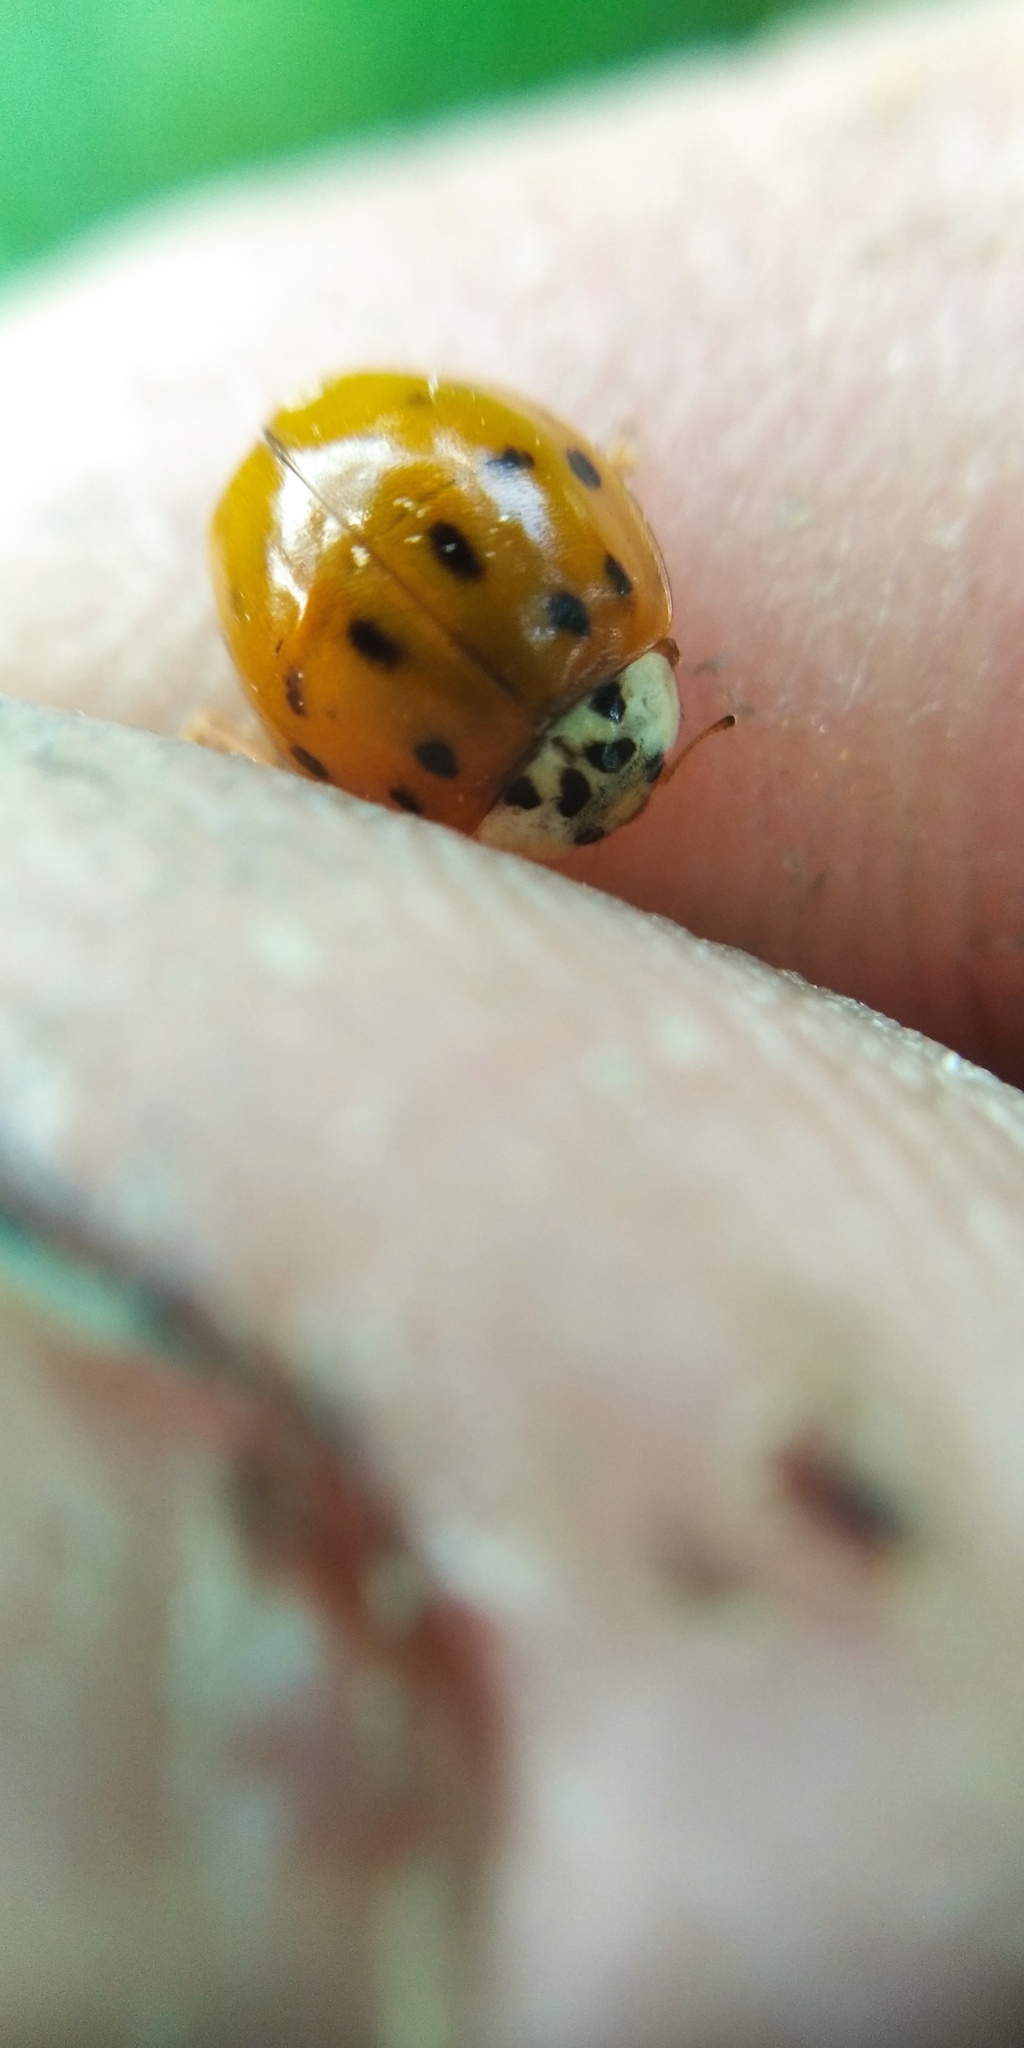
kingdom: Animalia
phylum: Arthropoda
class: Insecta
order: Coleoptera
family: Coccinellidae
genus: Harmonia
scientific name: Harmonia axyridis
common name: Harlequin ladybird
